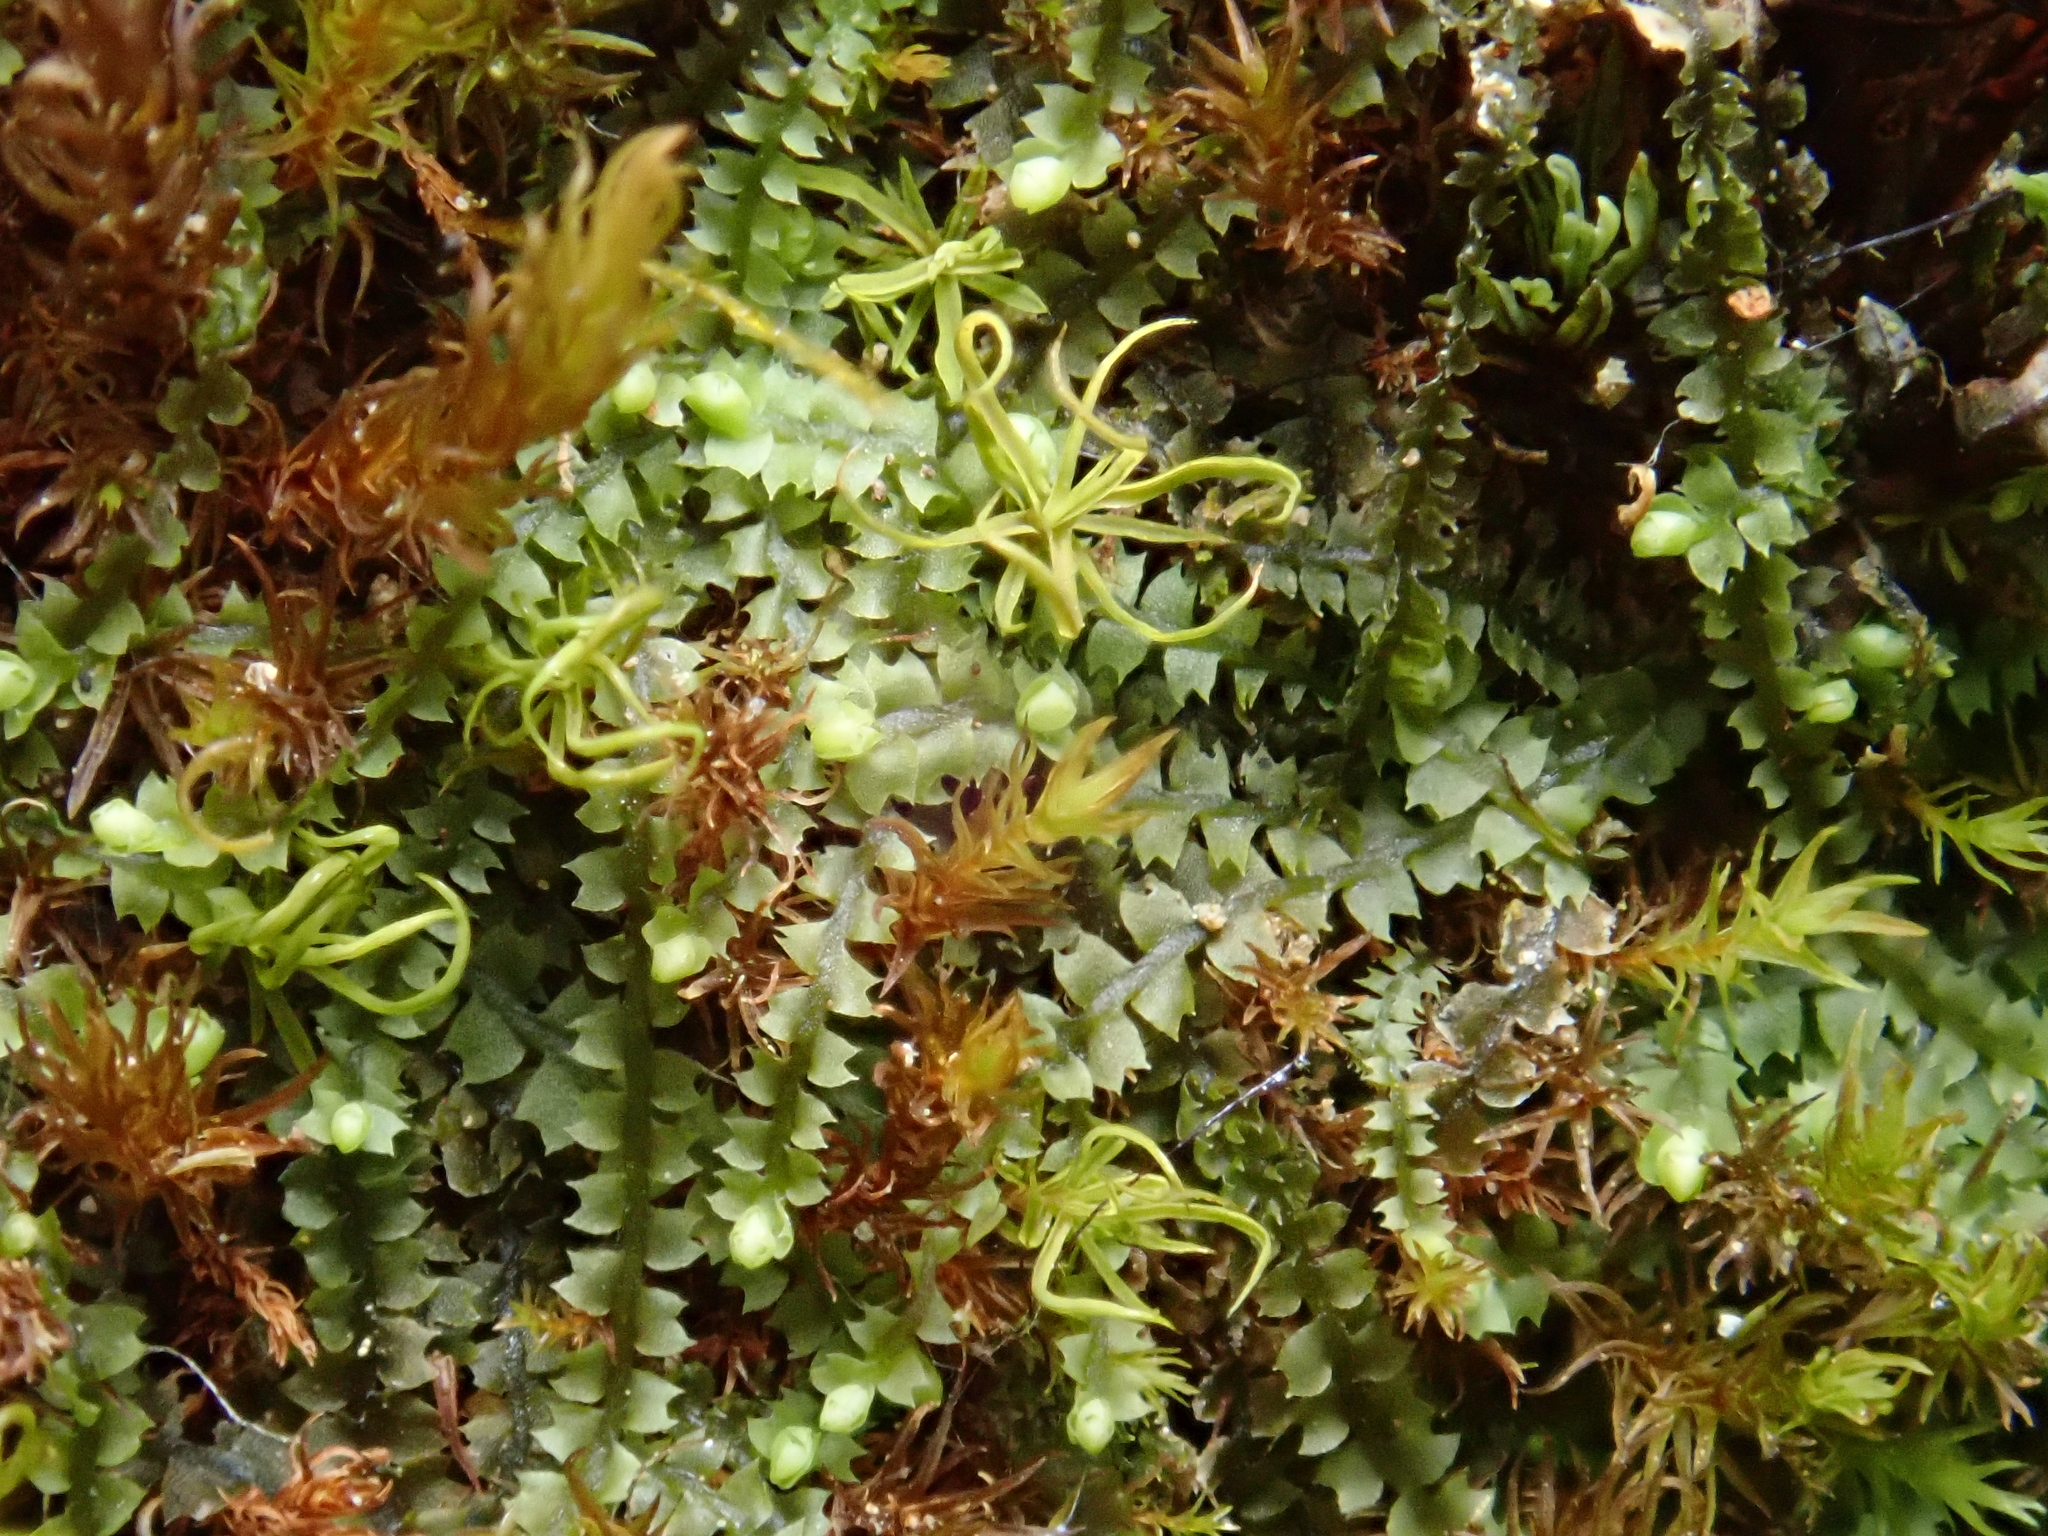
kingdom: Plantae
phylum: Marchantiophyta
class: Jungermanniopsida
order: Jungermanniales
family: Jungermanniaceae
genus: Mesoptychia
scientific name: Mesoptychia collaris
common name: Collared notchwort
